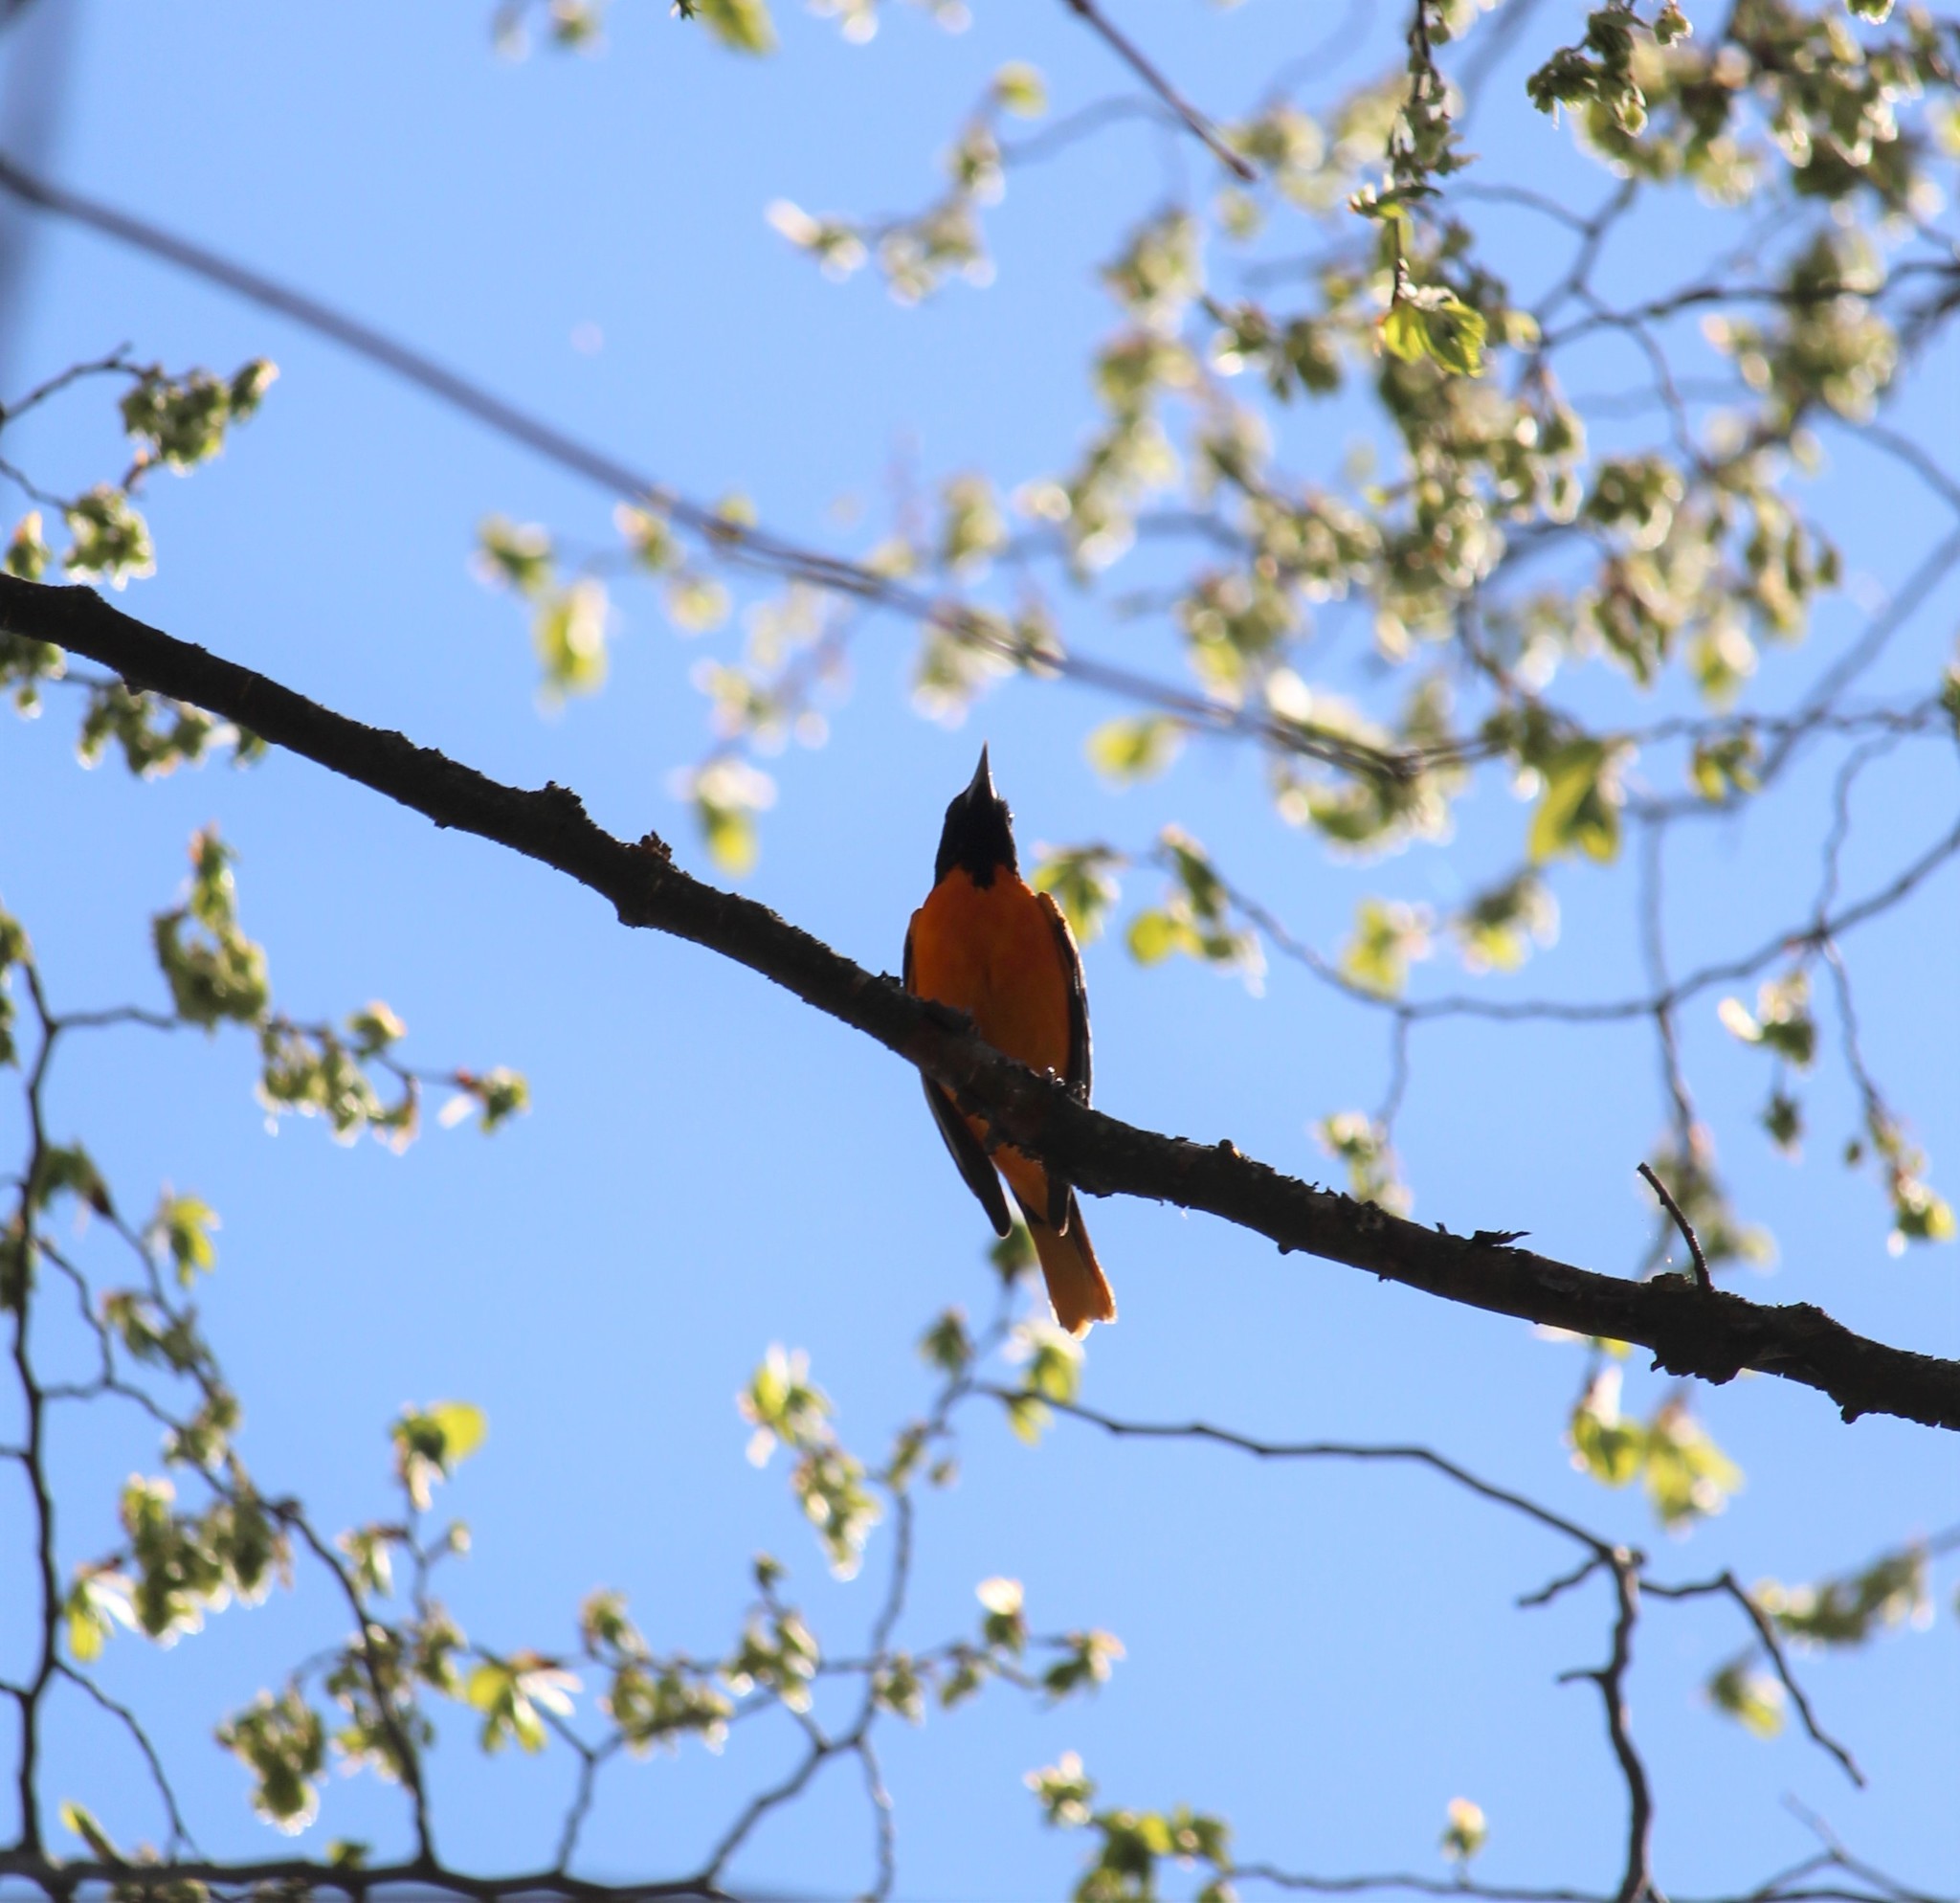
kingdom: Animalia
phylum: Chordata
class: Aves
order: Passeriformes
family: Icteridae
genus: Icterus
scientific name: Icterus galbula
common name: Baltimore oriole
